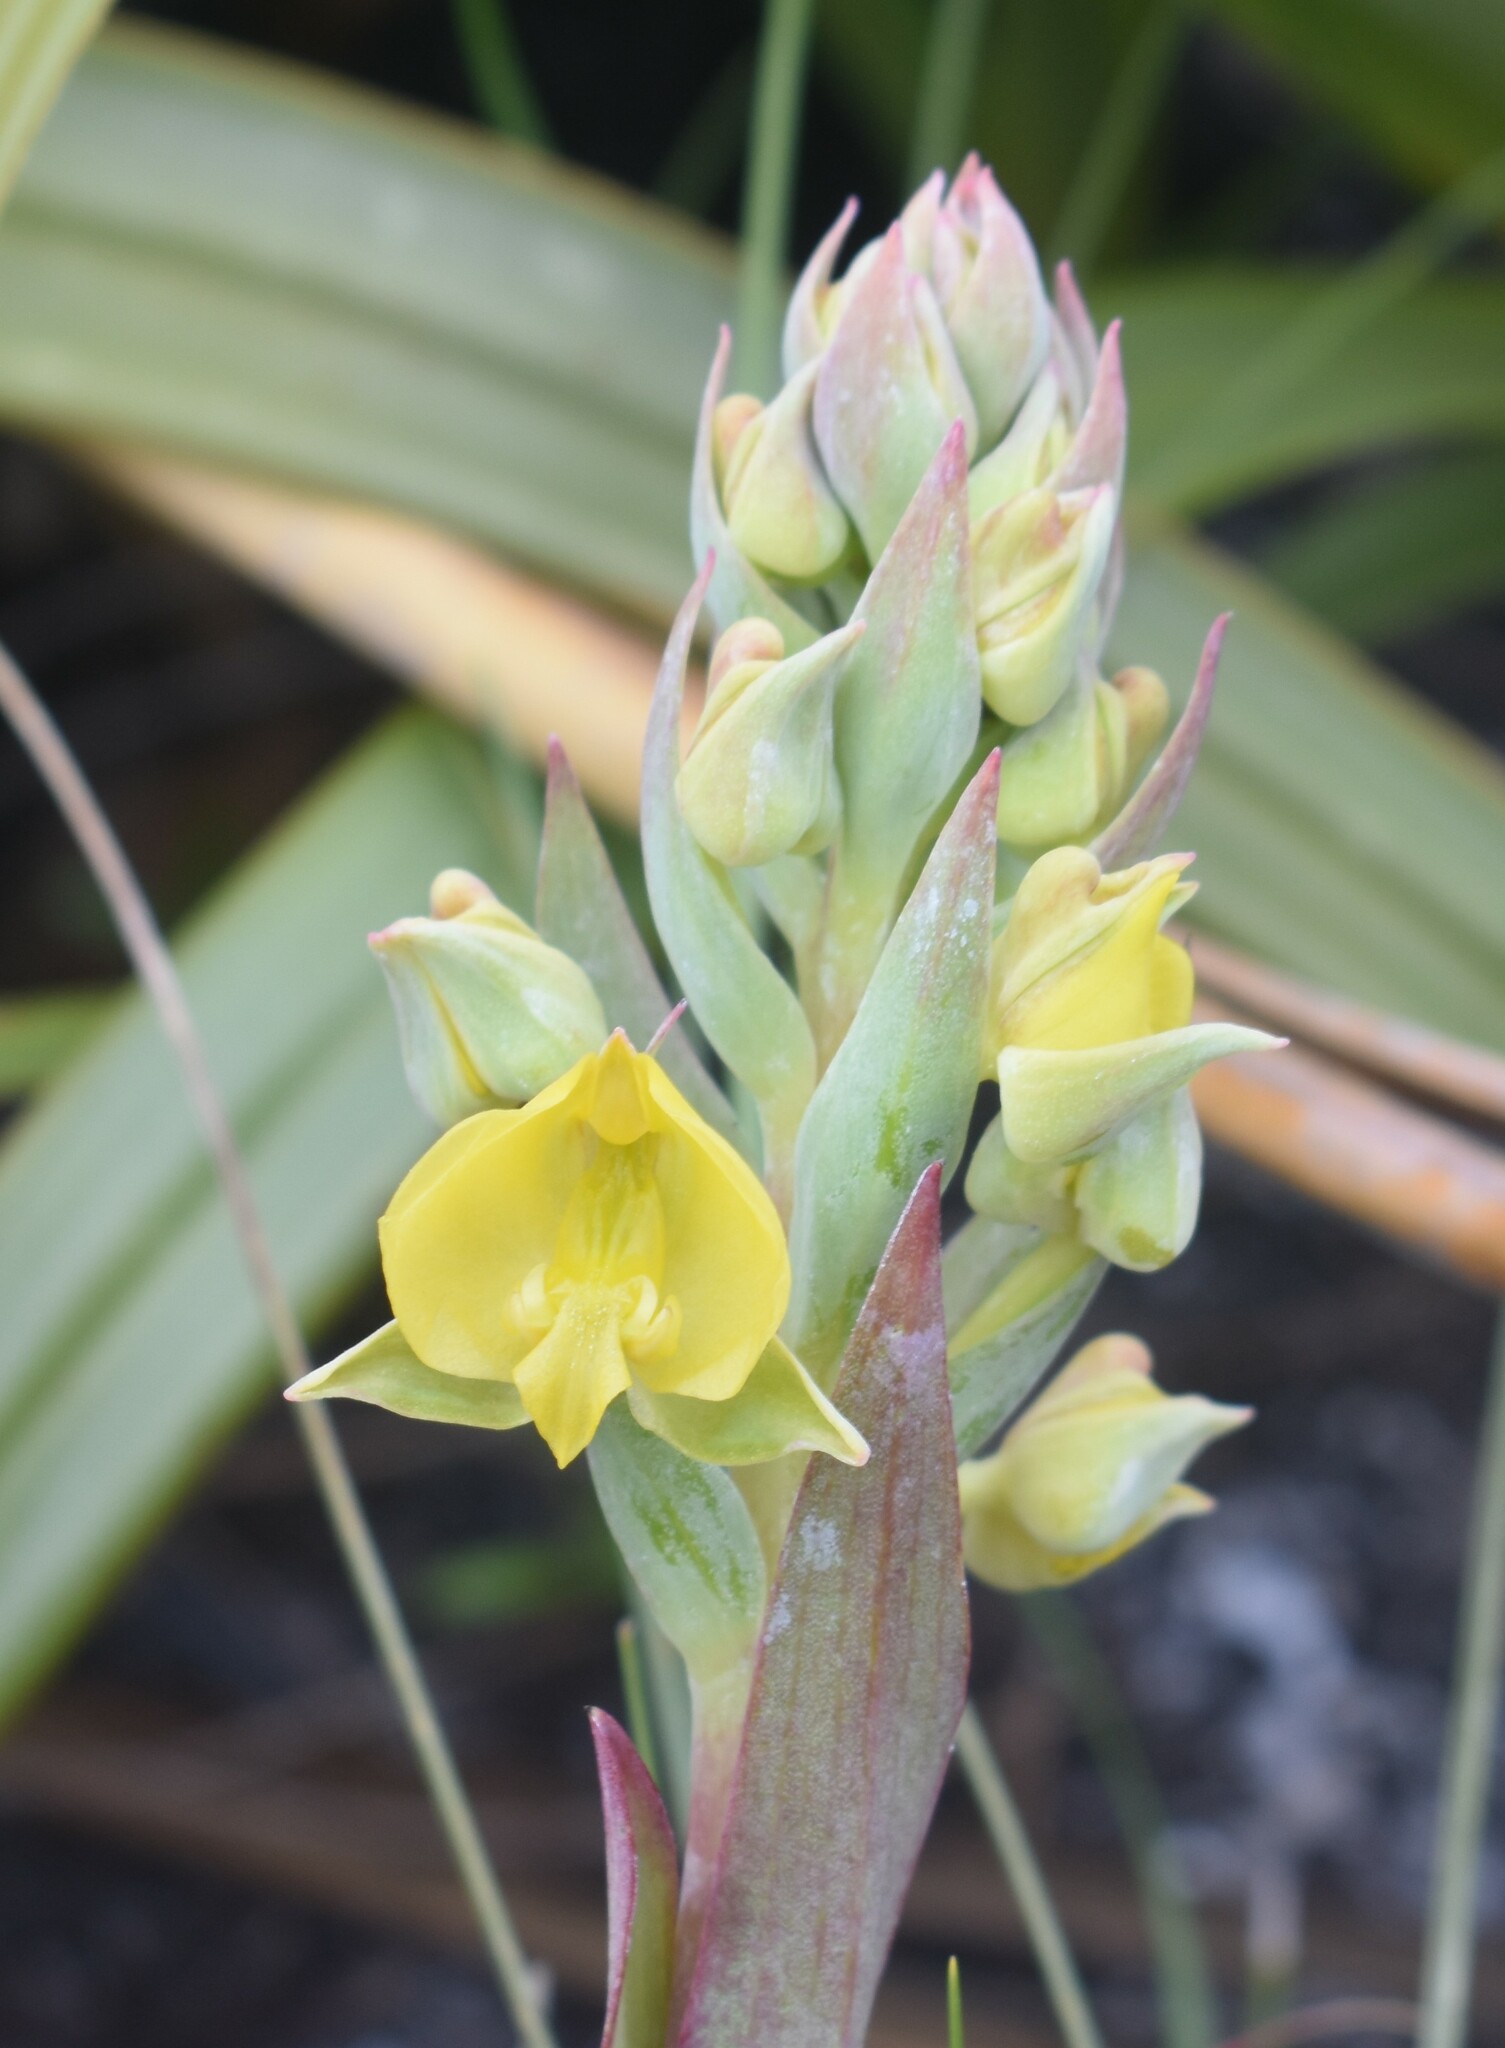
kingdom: Plantae
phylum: Tracheophyta
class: Liliopsida
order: Asparagales
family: Orchidaceae
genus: Pterygodium
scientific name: Pterygodium acutifolium
